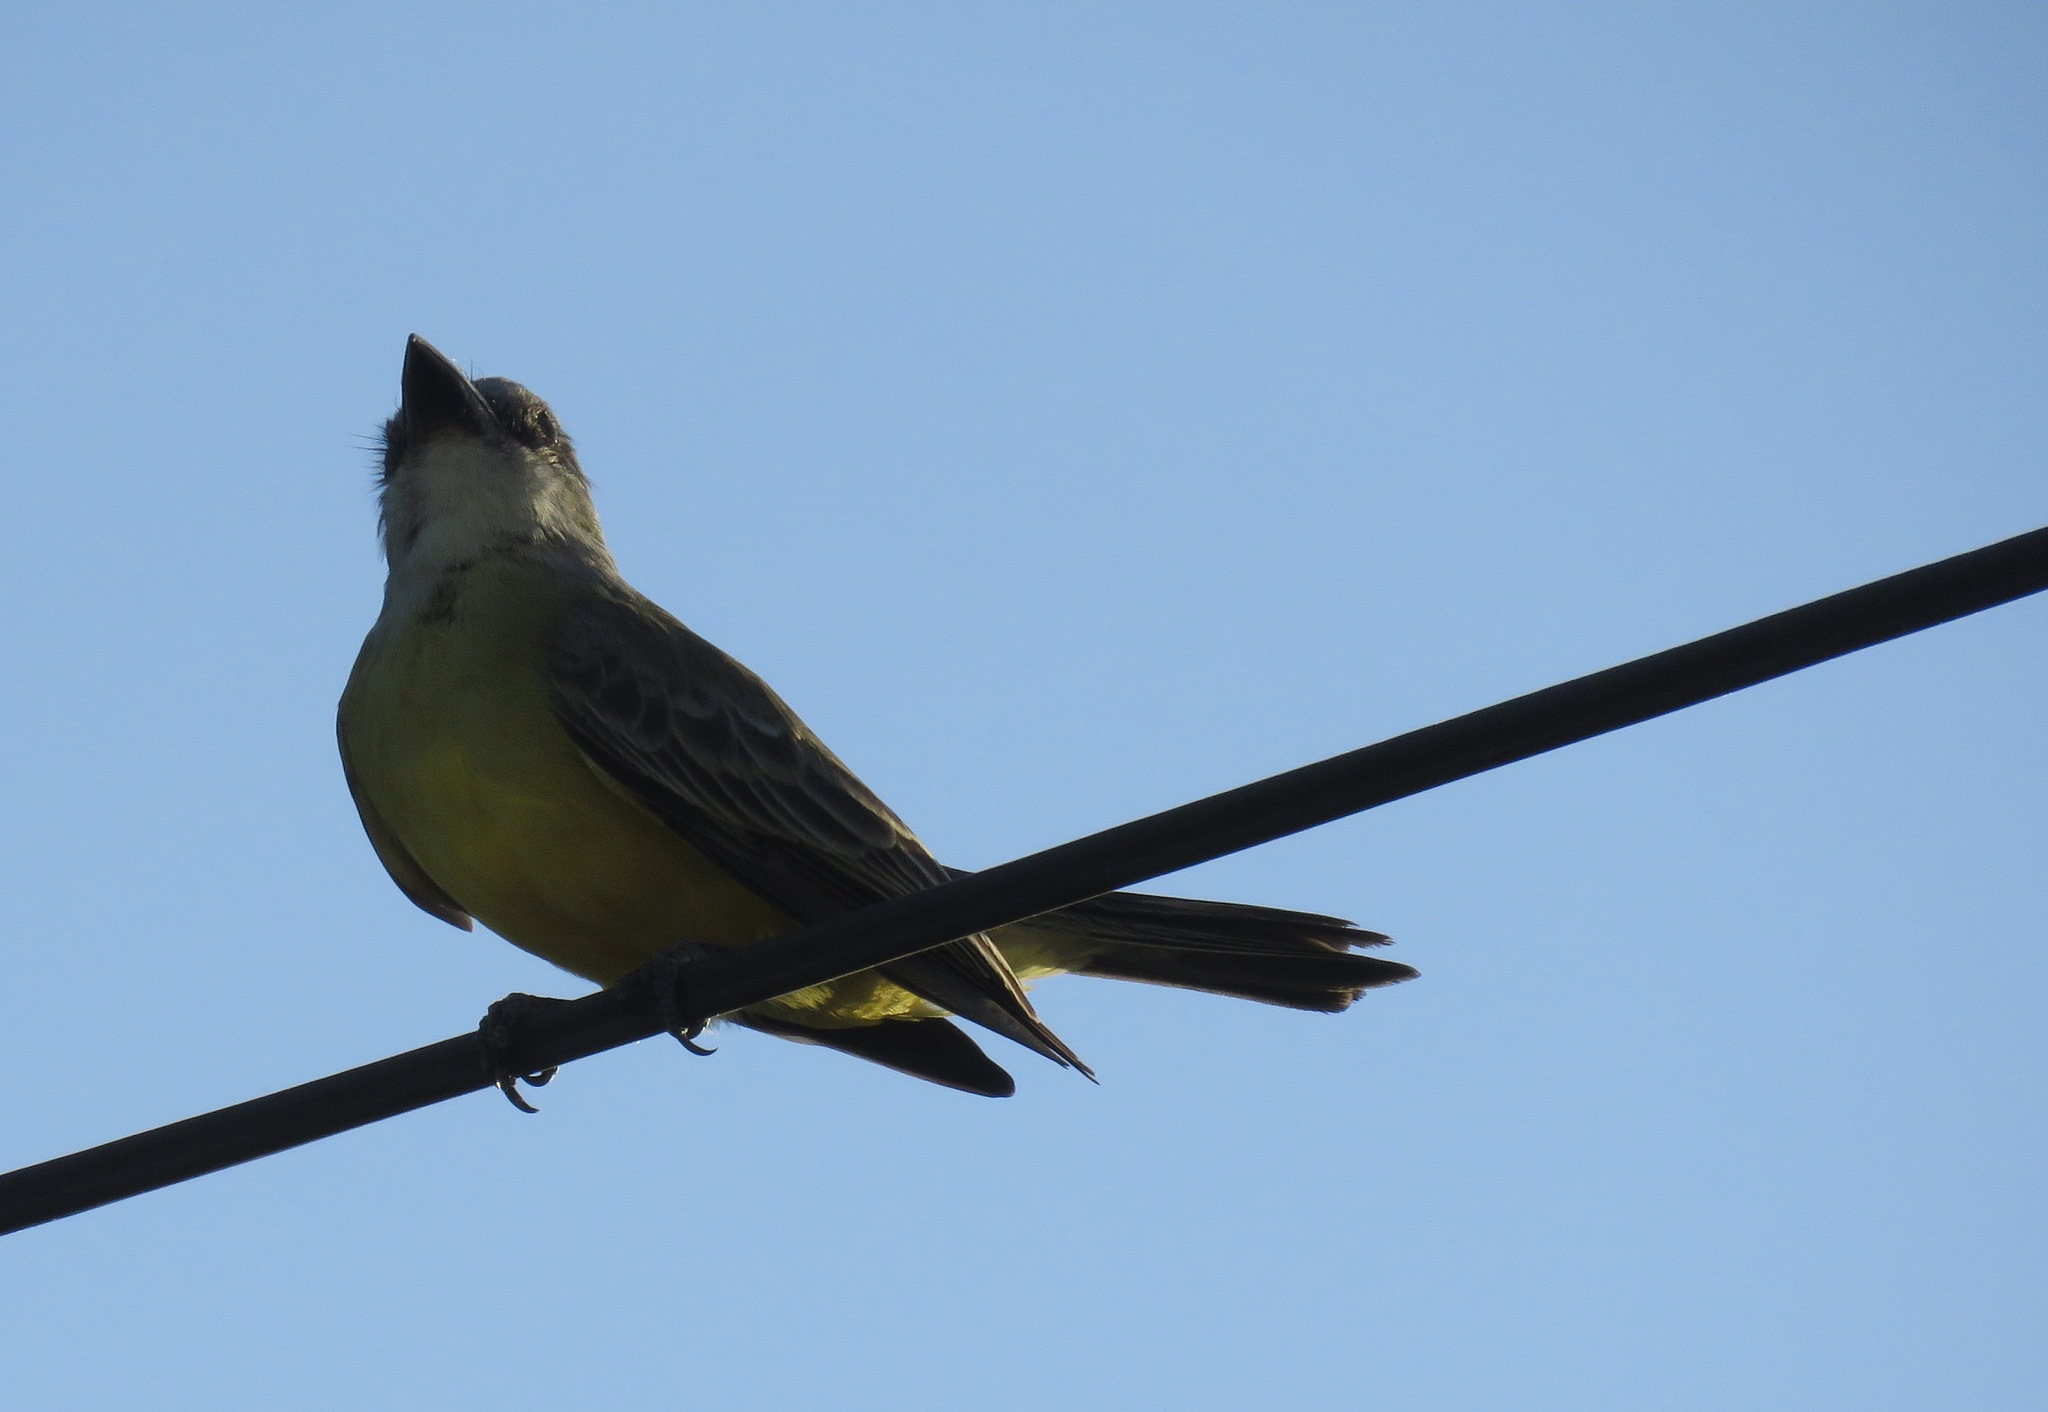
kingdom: Animalia
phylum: Chordata
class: Aves
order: Passeriformes
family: Tyrannidae
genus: Tyrannus
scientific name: Tyrannus melancholicus
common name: Tropical kingbird
